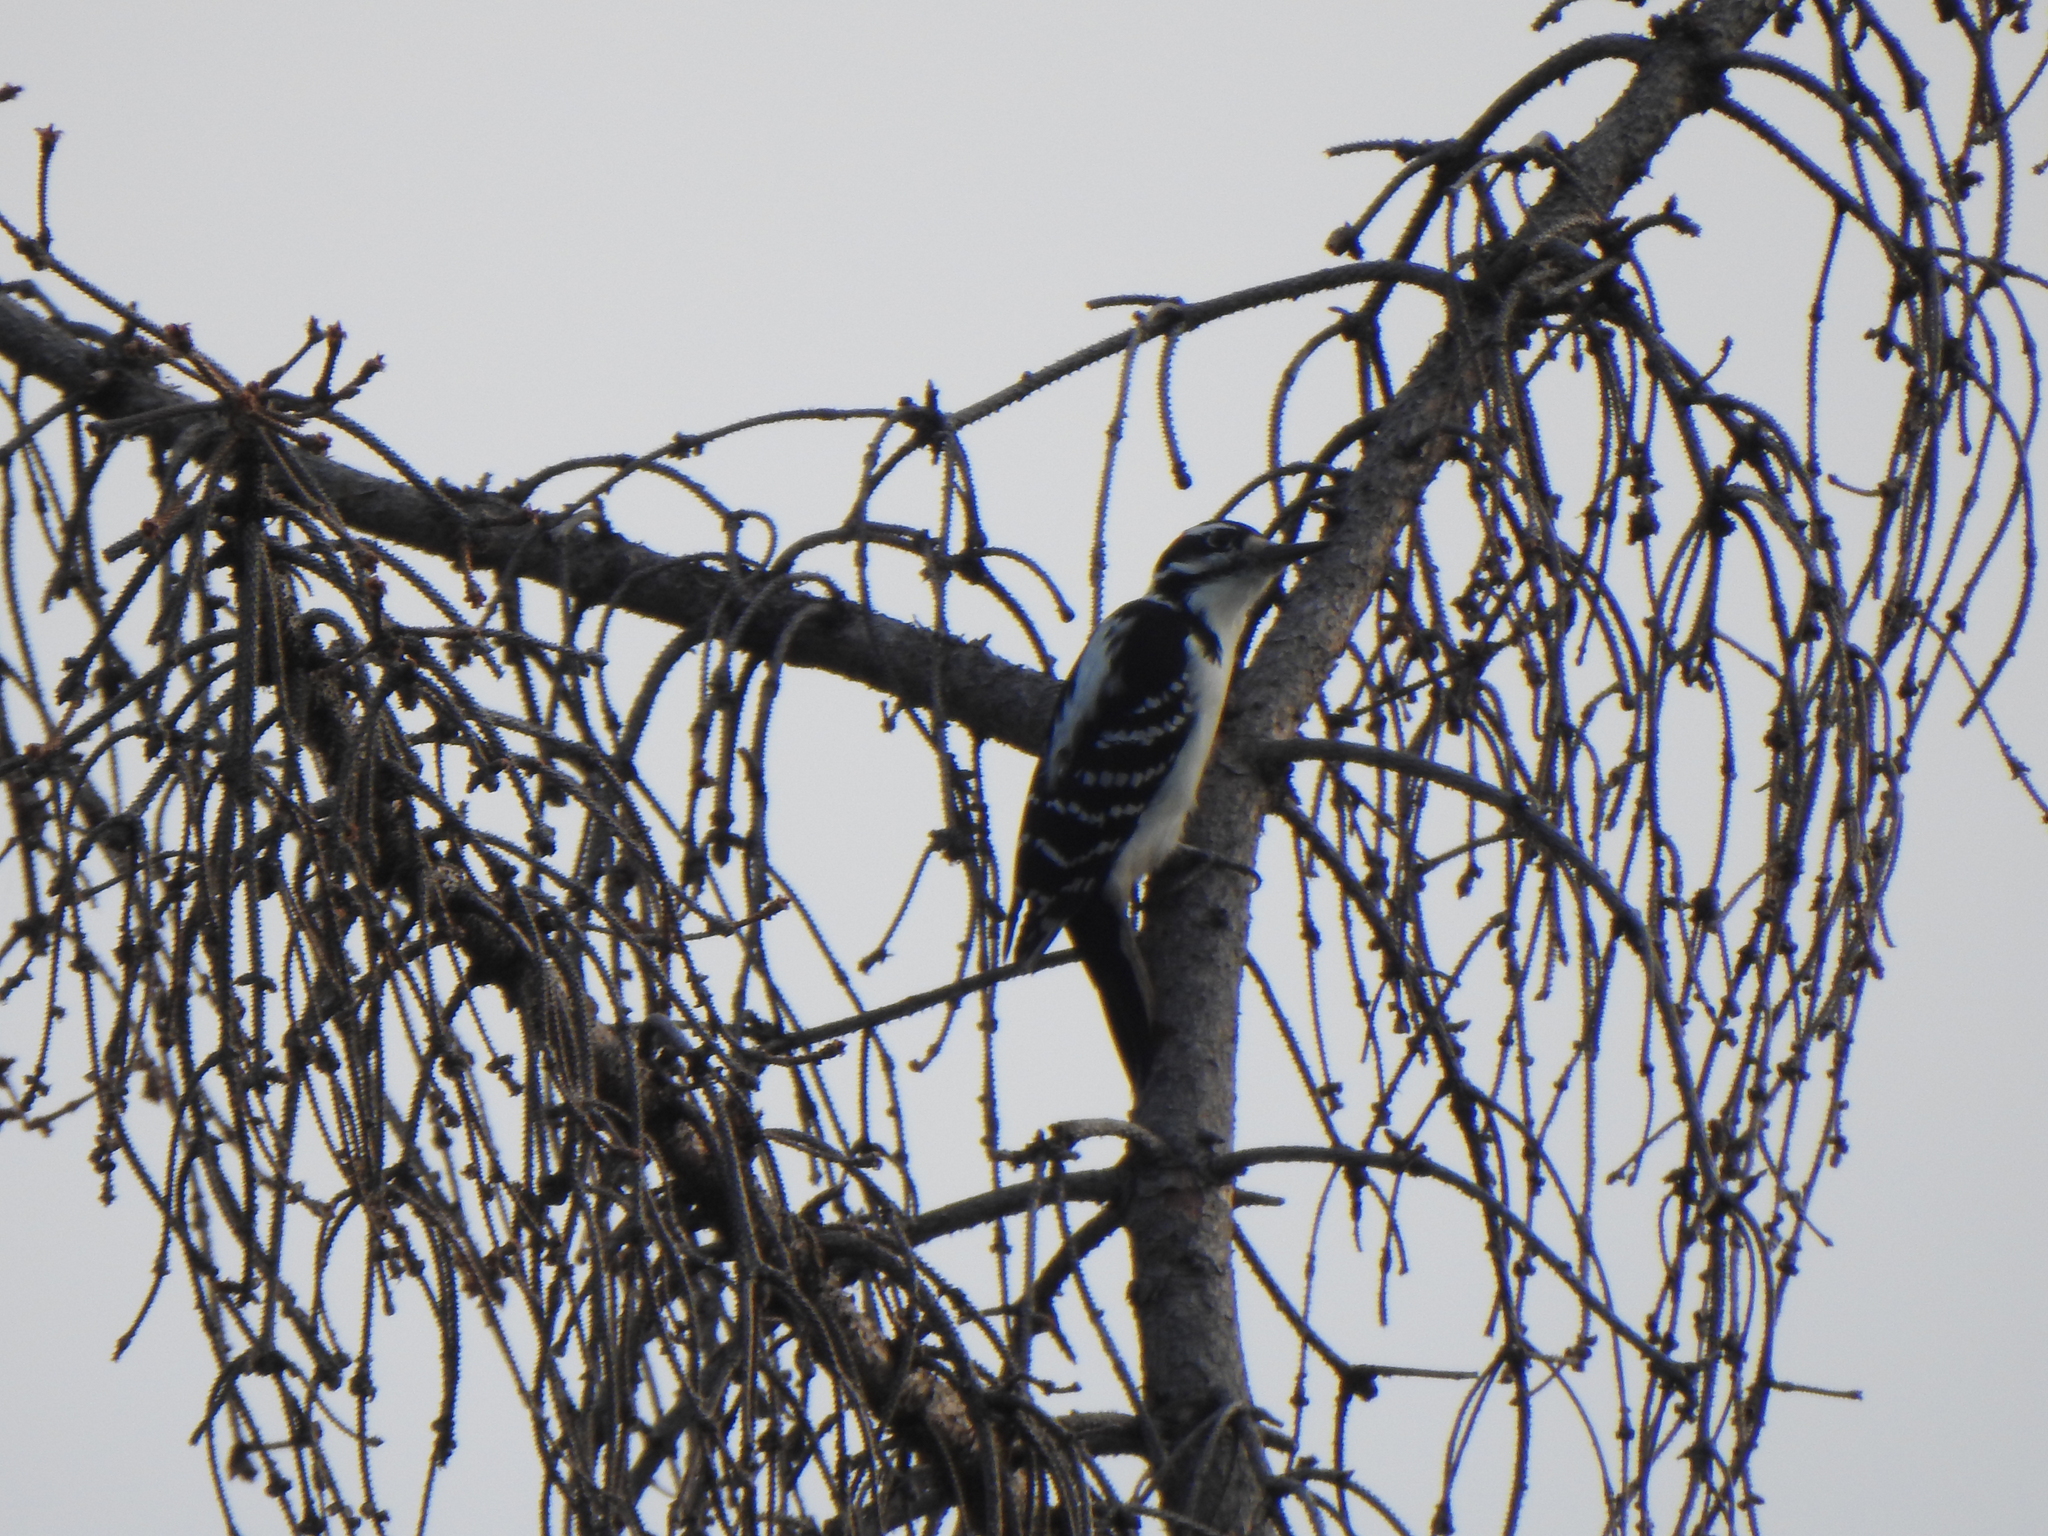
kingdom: Animalia
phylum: Chordata
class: Aves
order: Piciformes
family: Picidae
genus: Leuconotopicus
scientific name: Leuconotopicus villosus
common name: Hairy woodpecker
